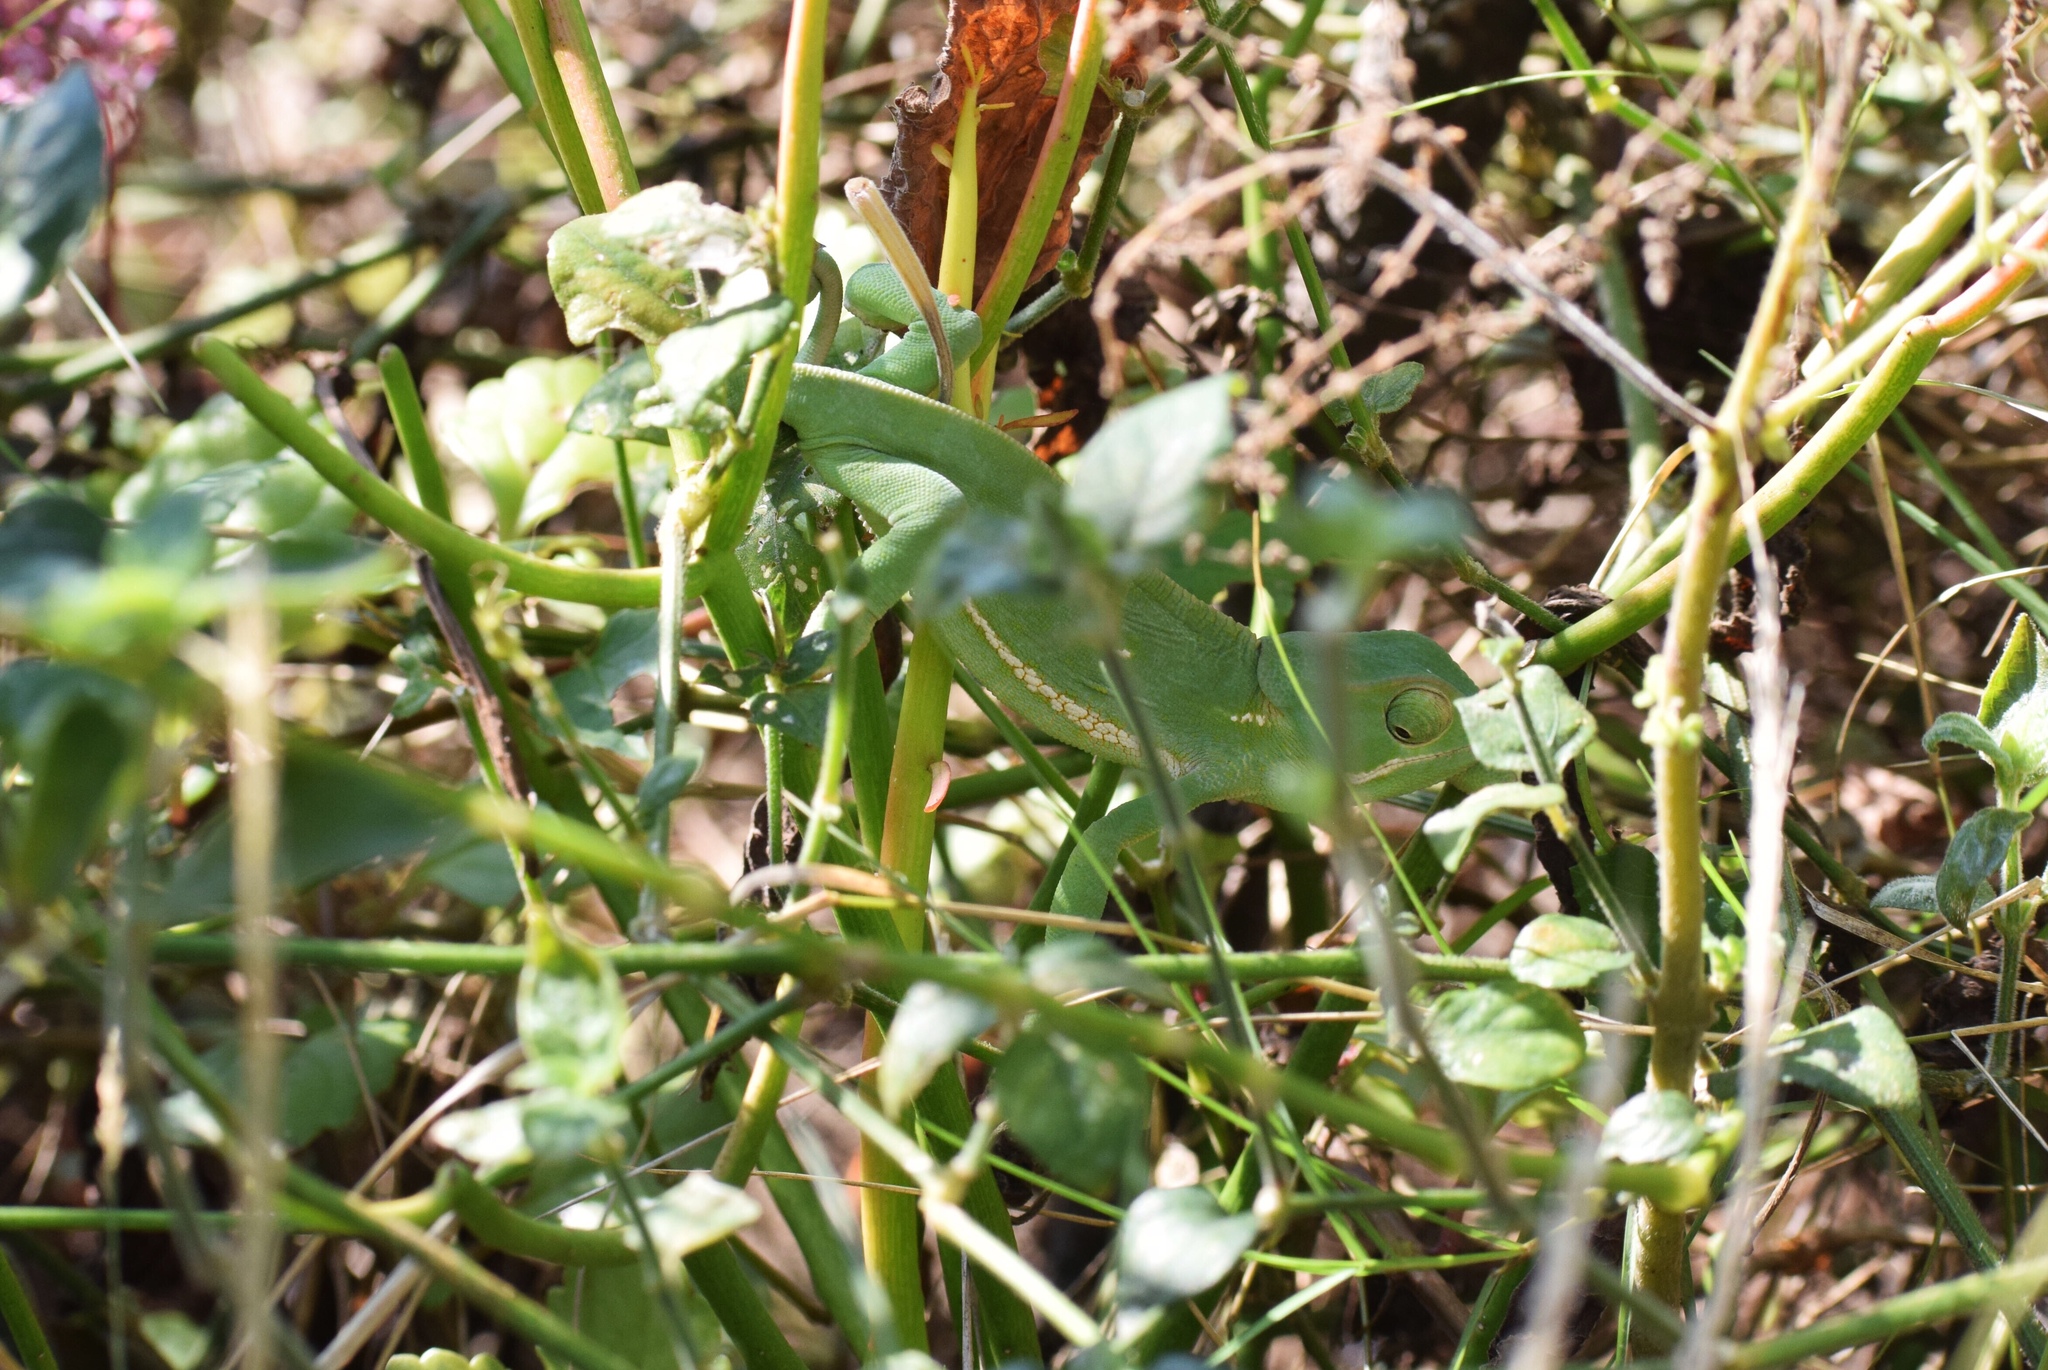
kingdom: Animalia
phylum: Chordata
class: Squamata
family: Chamaeleonidae
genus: Chamaeleo
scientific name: Chamaeleo dilepis
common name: Flapneck chameleon
